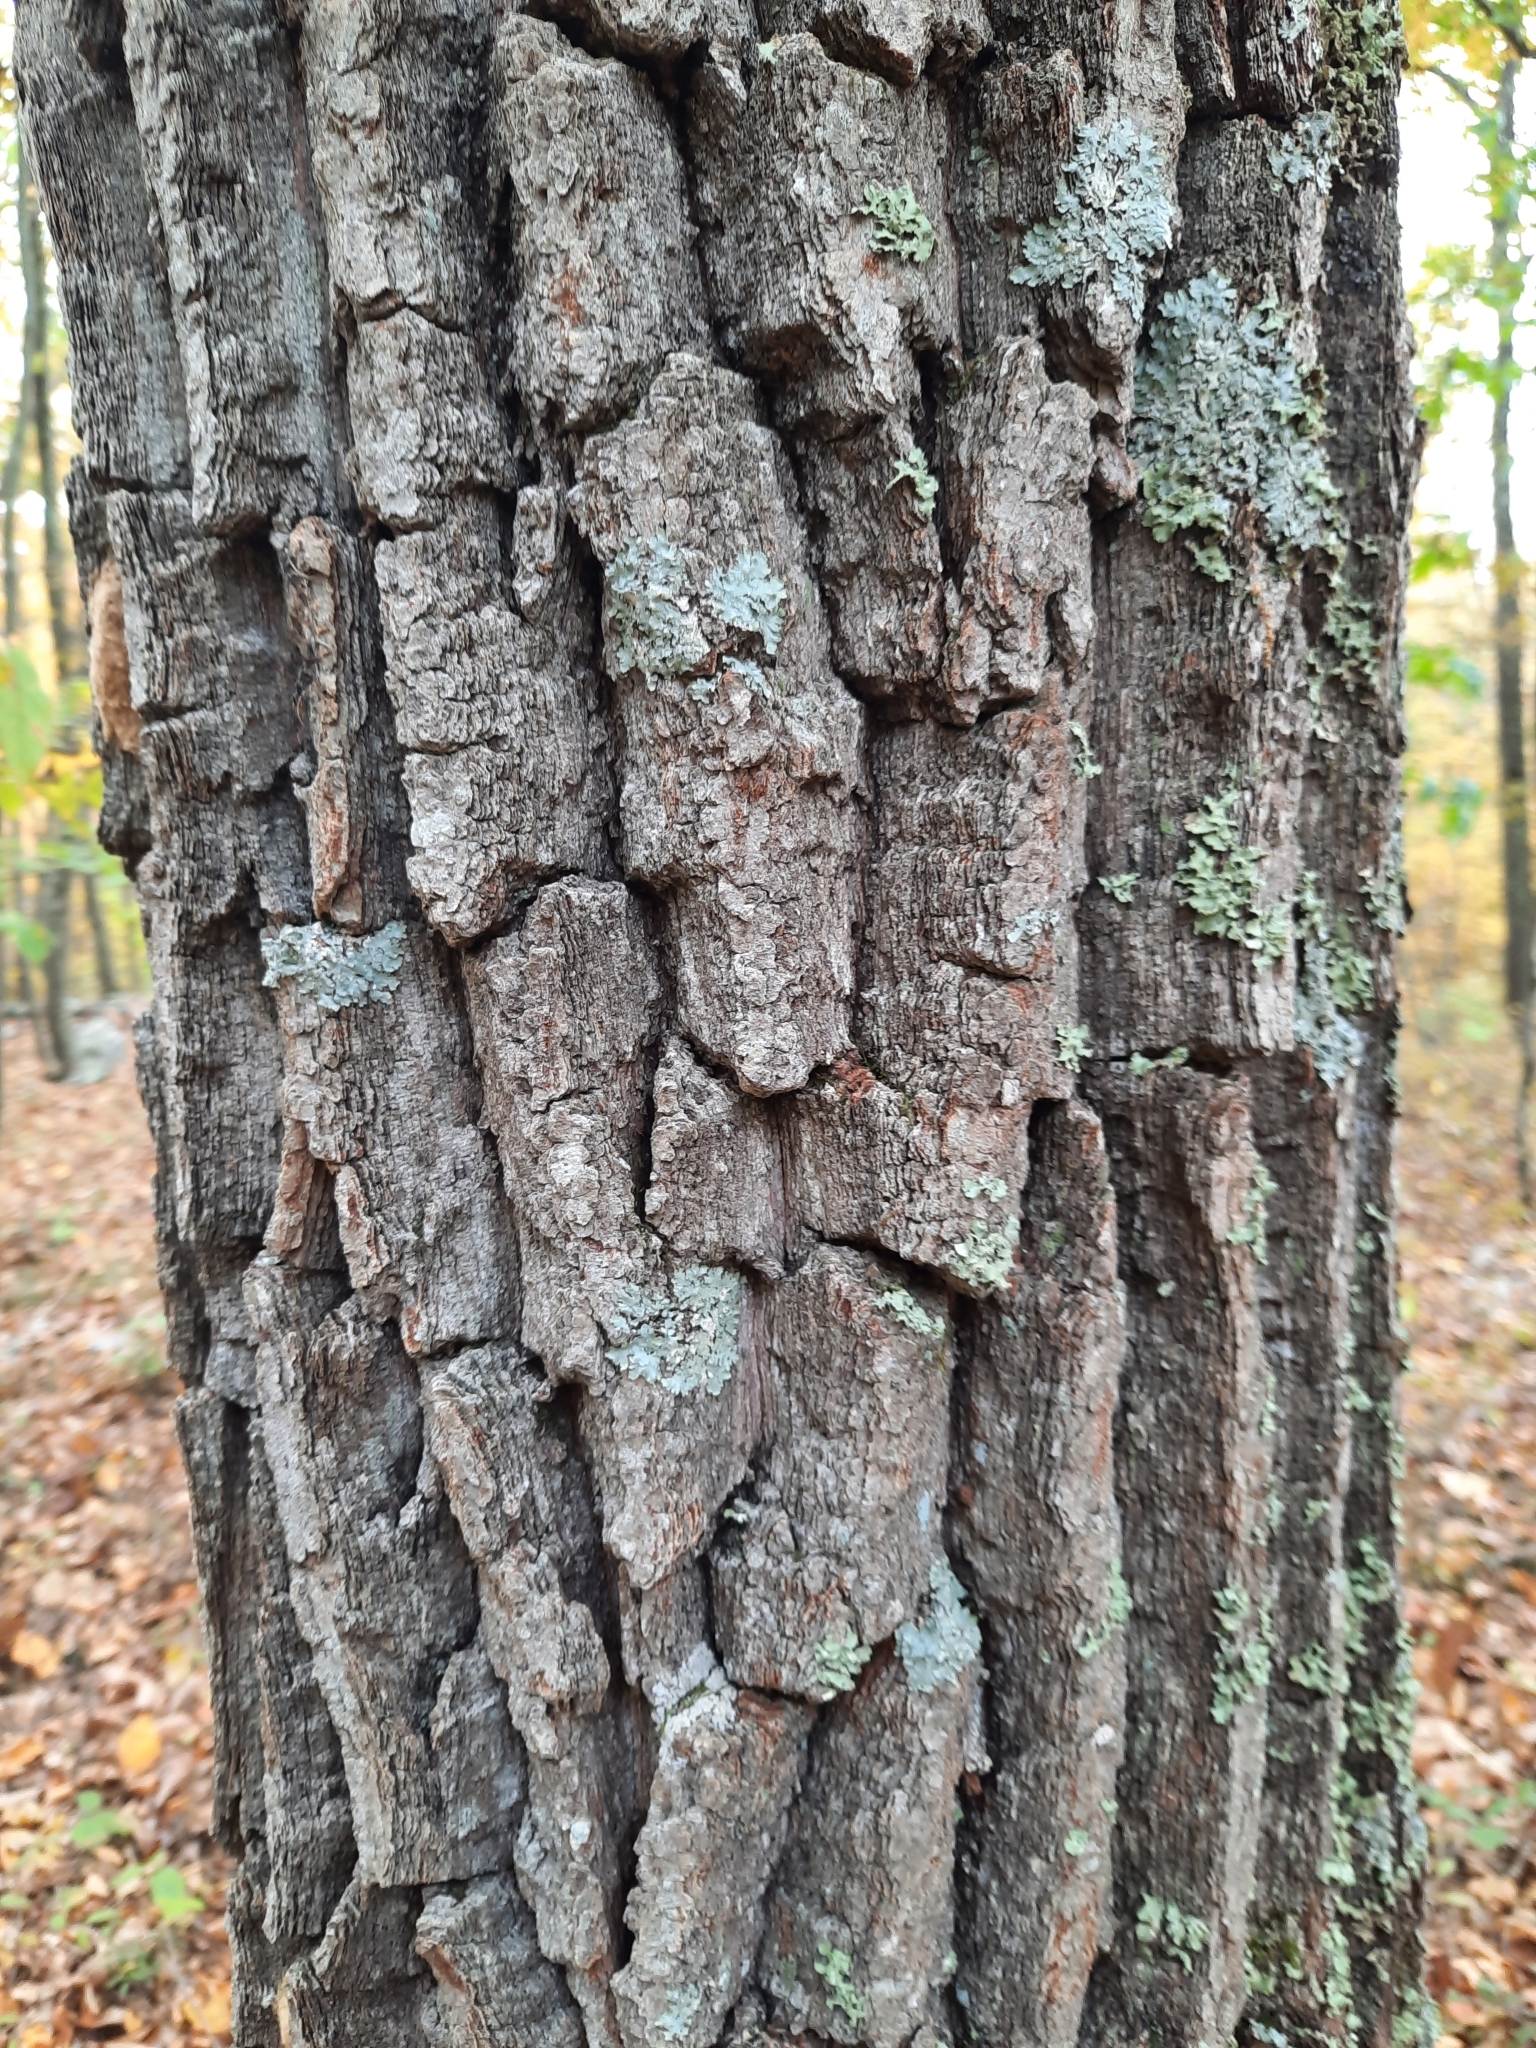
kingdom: Plantae
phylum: Tracheophyta
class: Magnoliopsida
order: Fagales
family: Fagaceae
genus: Quercus
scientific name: Quercus montana
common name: Chestnut oak
